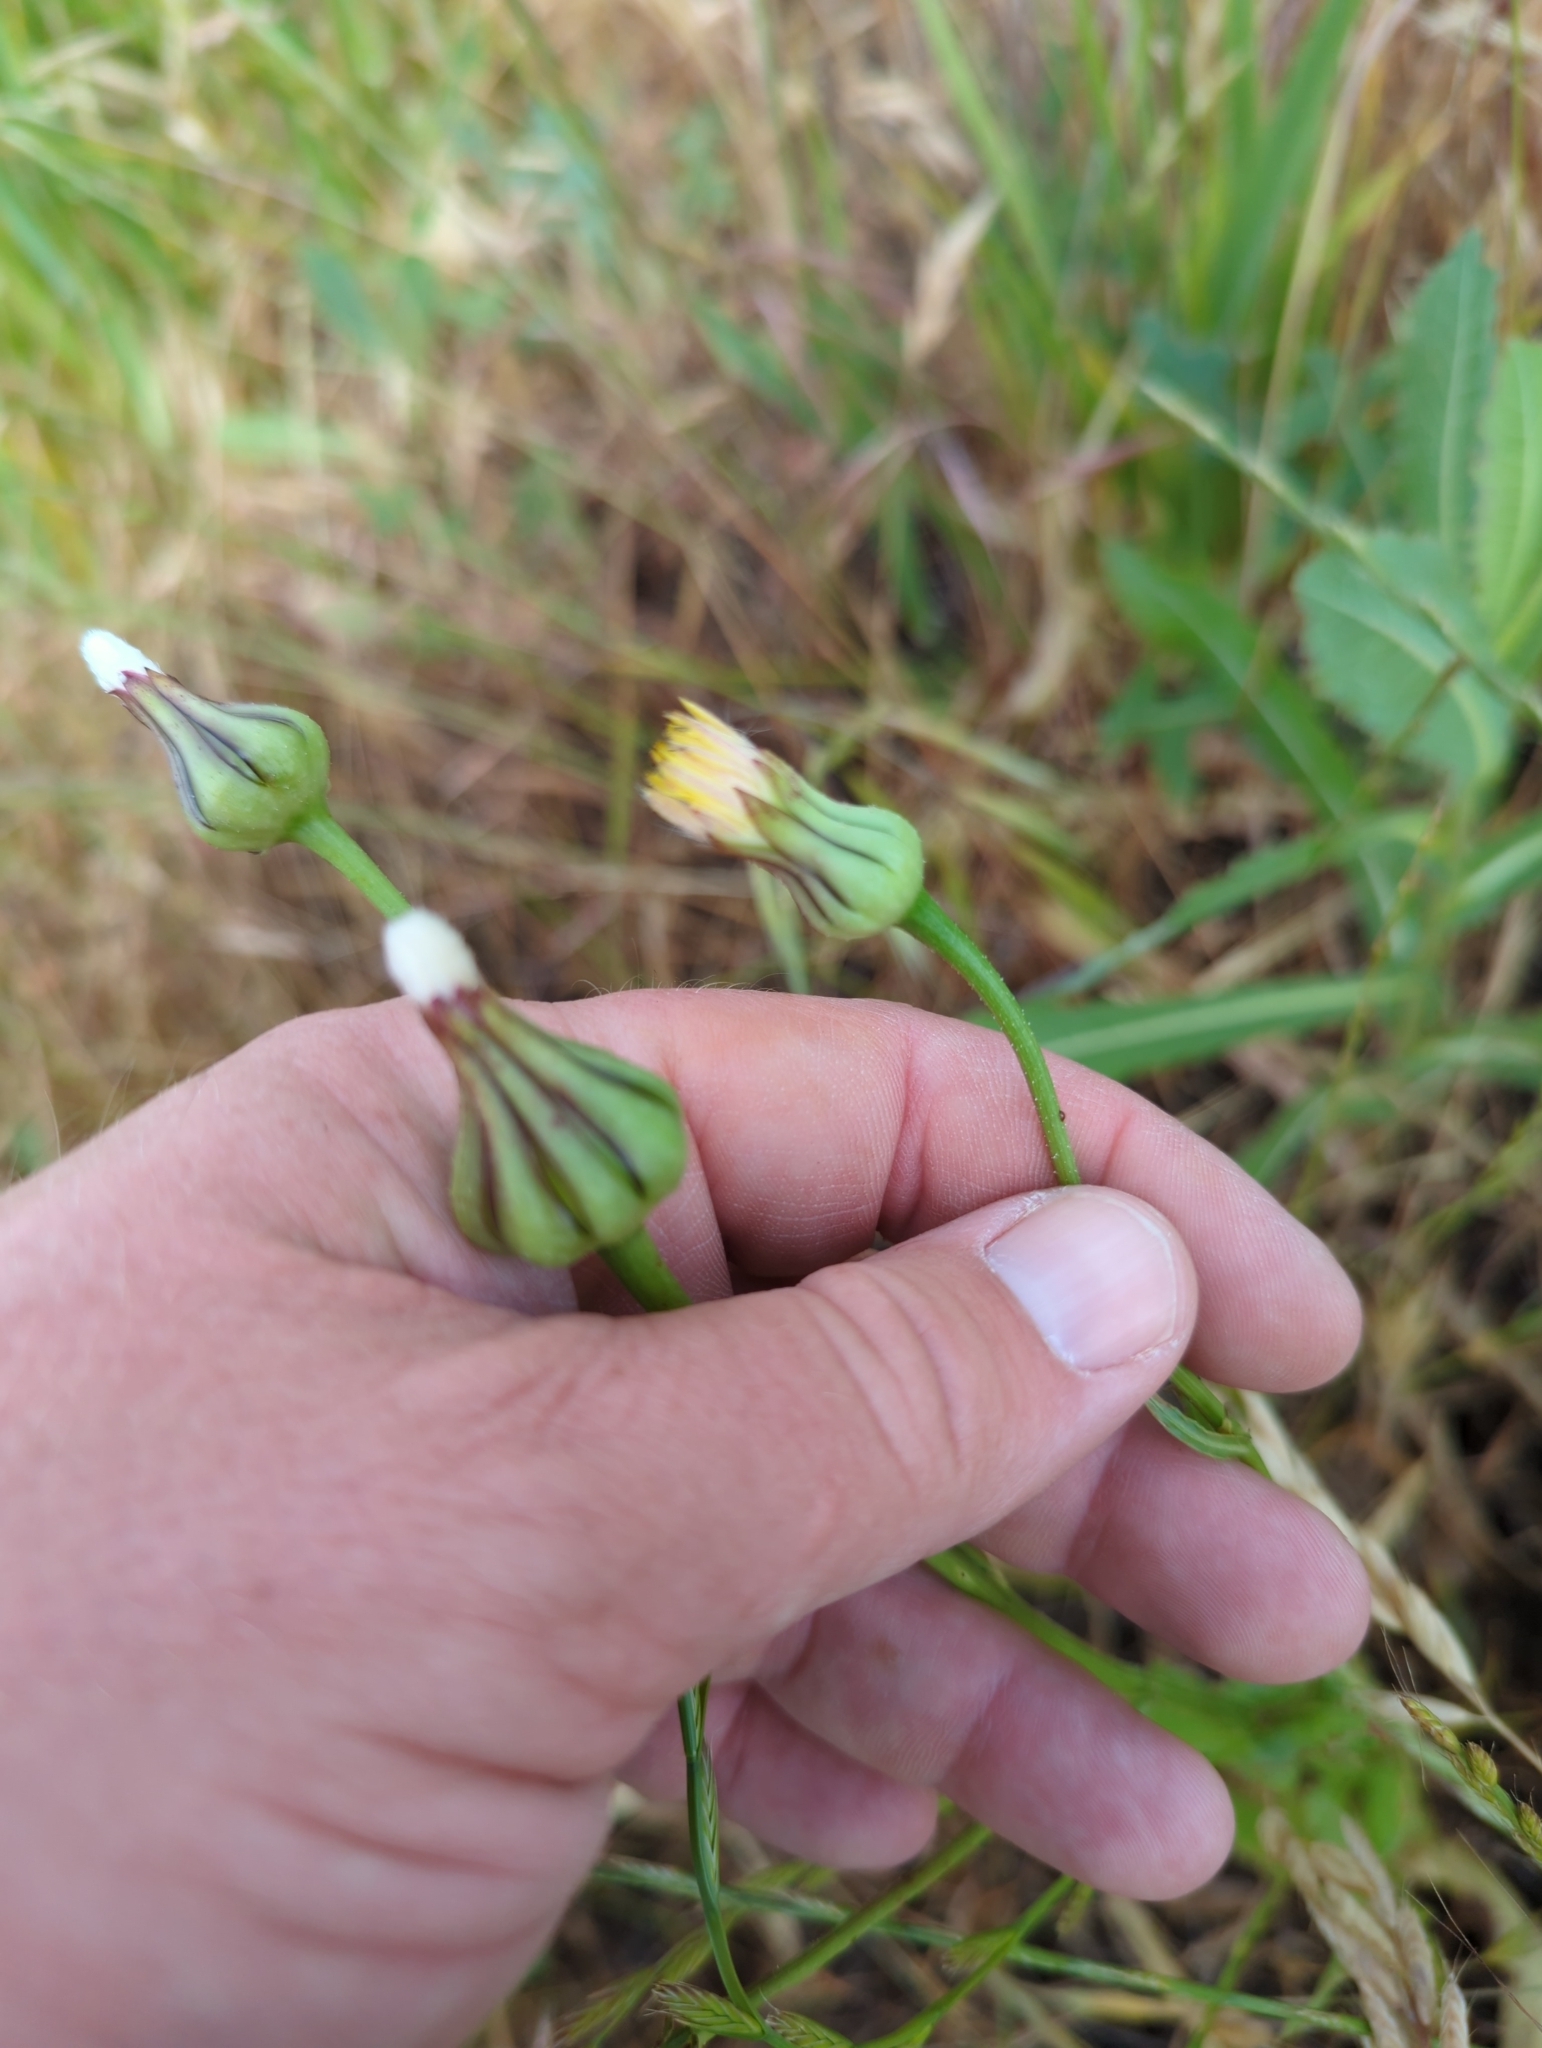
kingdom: Plantae
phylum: Tracheophyta
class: Magnoliopsida
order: Asterales
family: Asteraceae
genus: Urospermum
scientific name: Urospermum picroides
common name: False hawkbit
